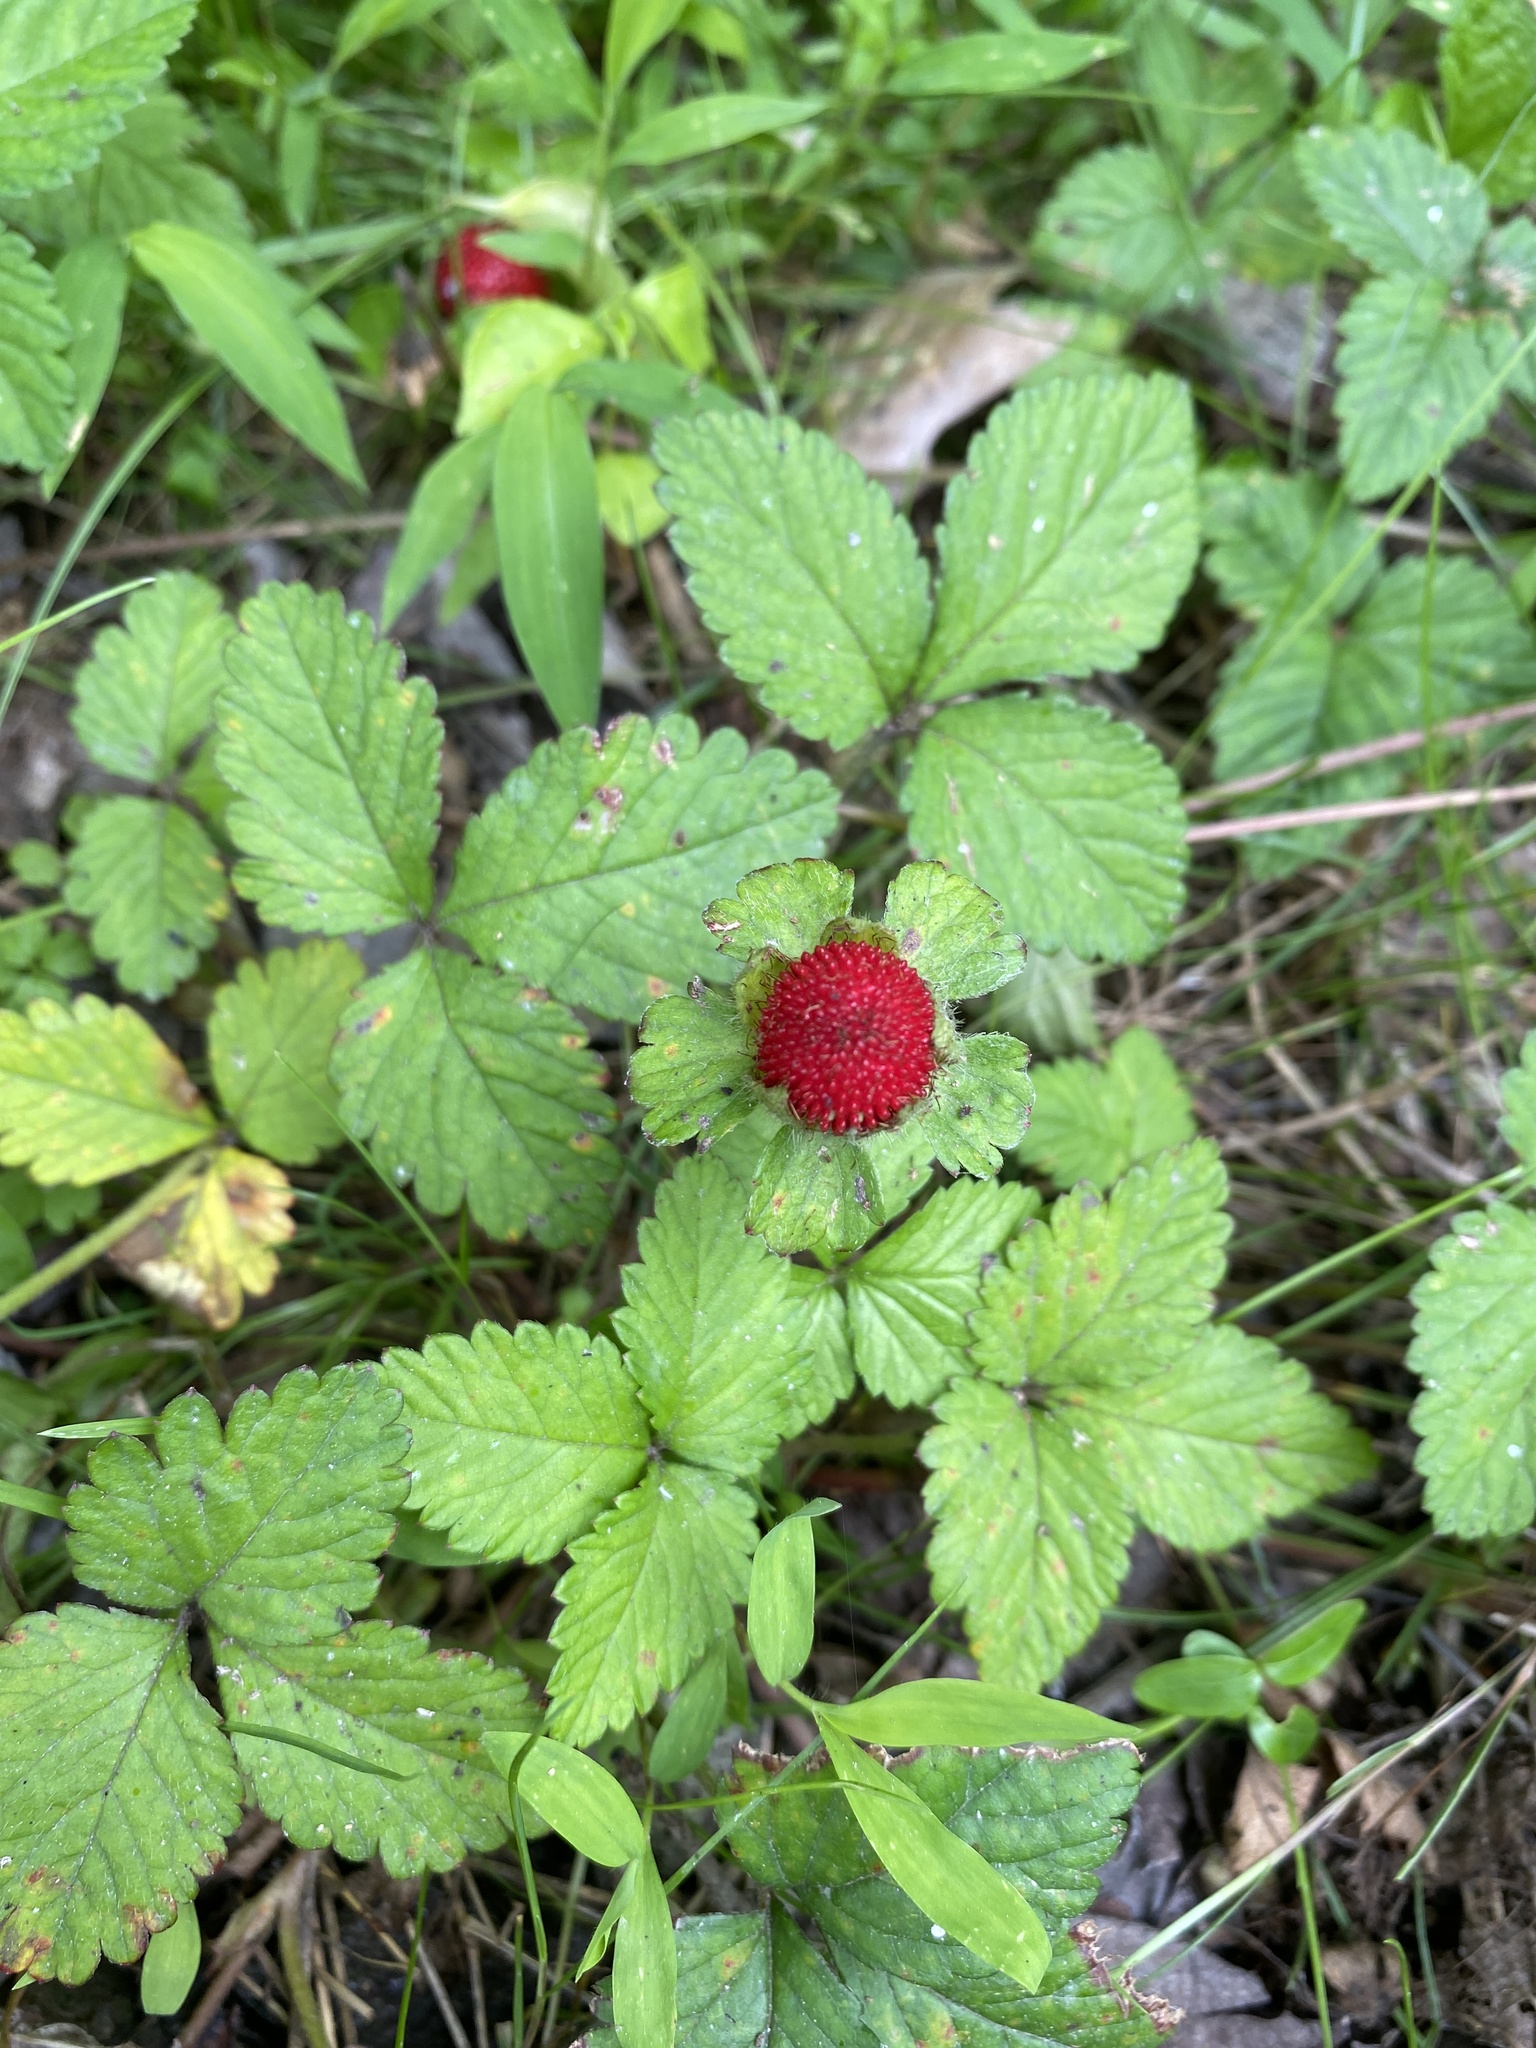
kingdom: Plantae
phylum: Tracheophyta
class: Magnoliopsida
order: Rosales
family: Rosaceae
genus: Potentilla
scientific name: Potentilla indica
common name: Yellow-flowered strawberry
